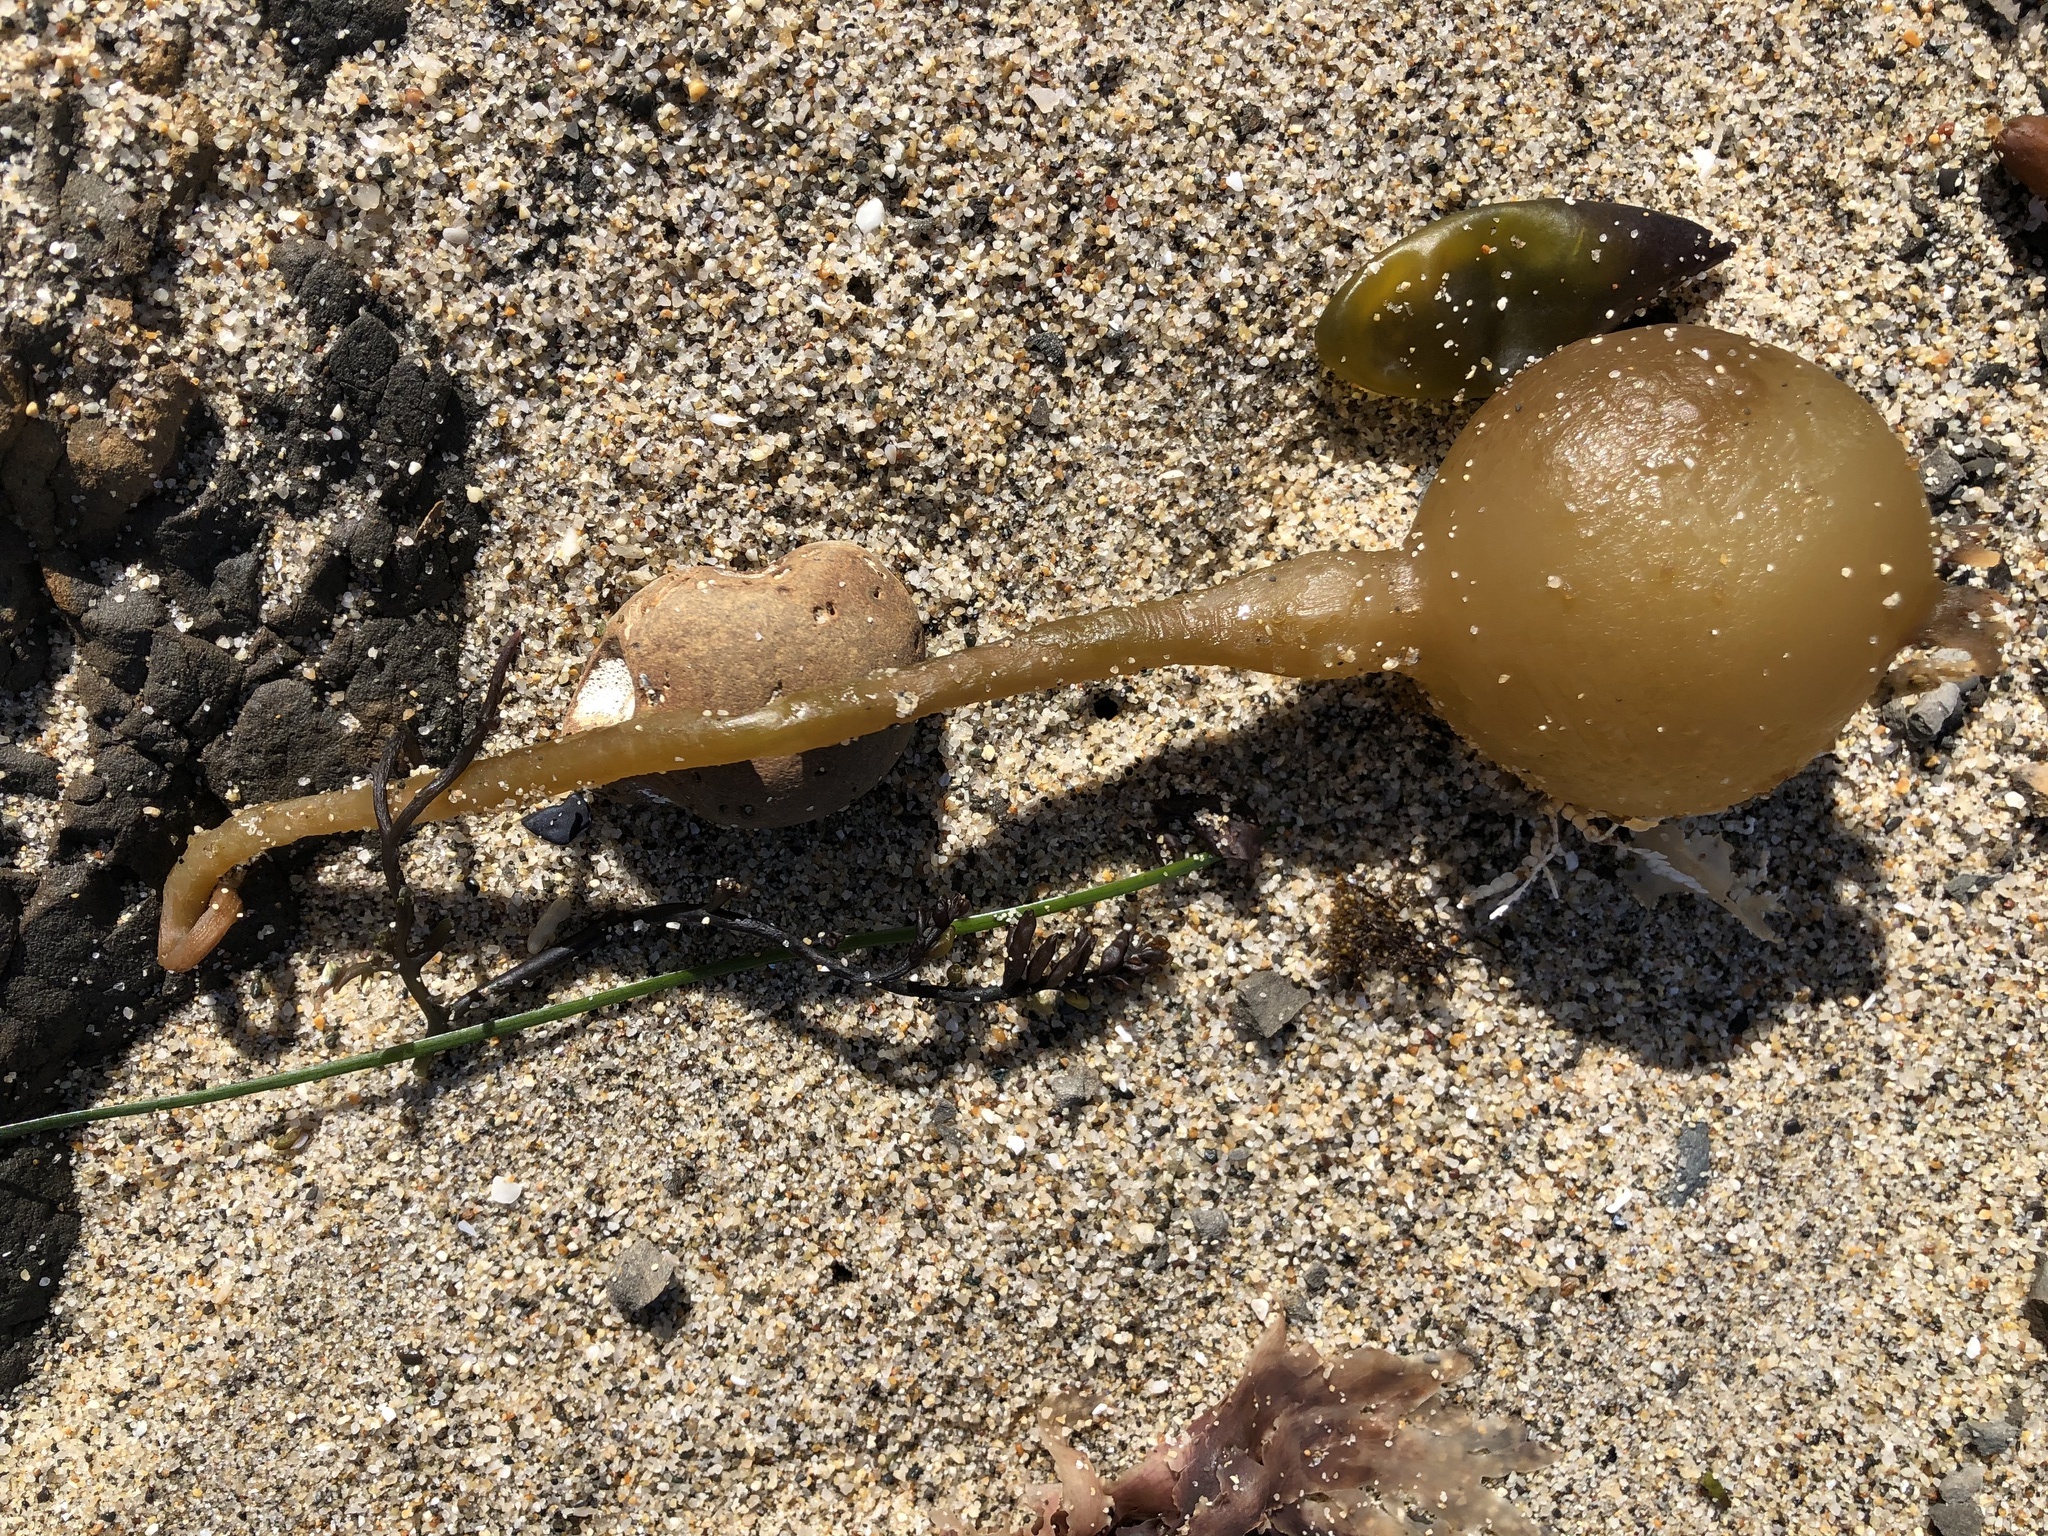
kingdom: Chromista
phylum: Ochrophyta
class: Phaeophyceae
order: Laminariales
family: Laminariaceae
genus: Nereocystis
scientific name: Nereocystis luetkeana
